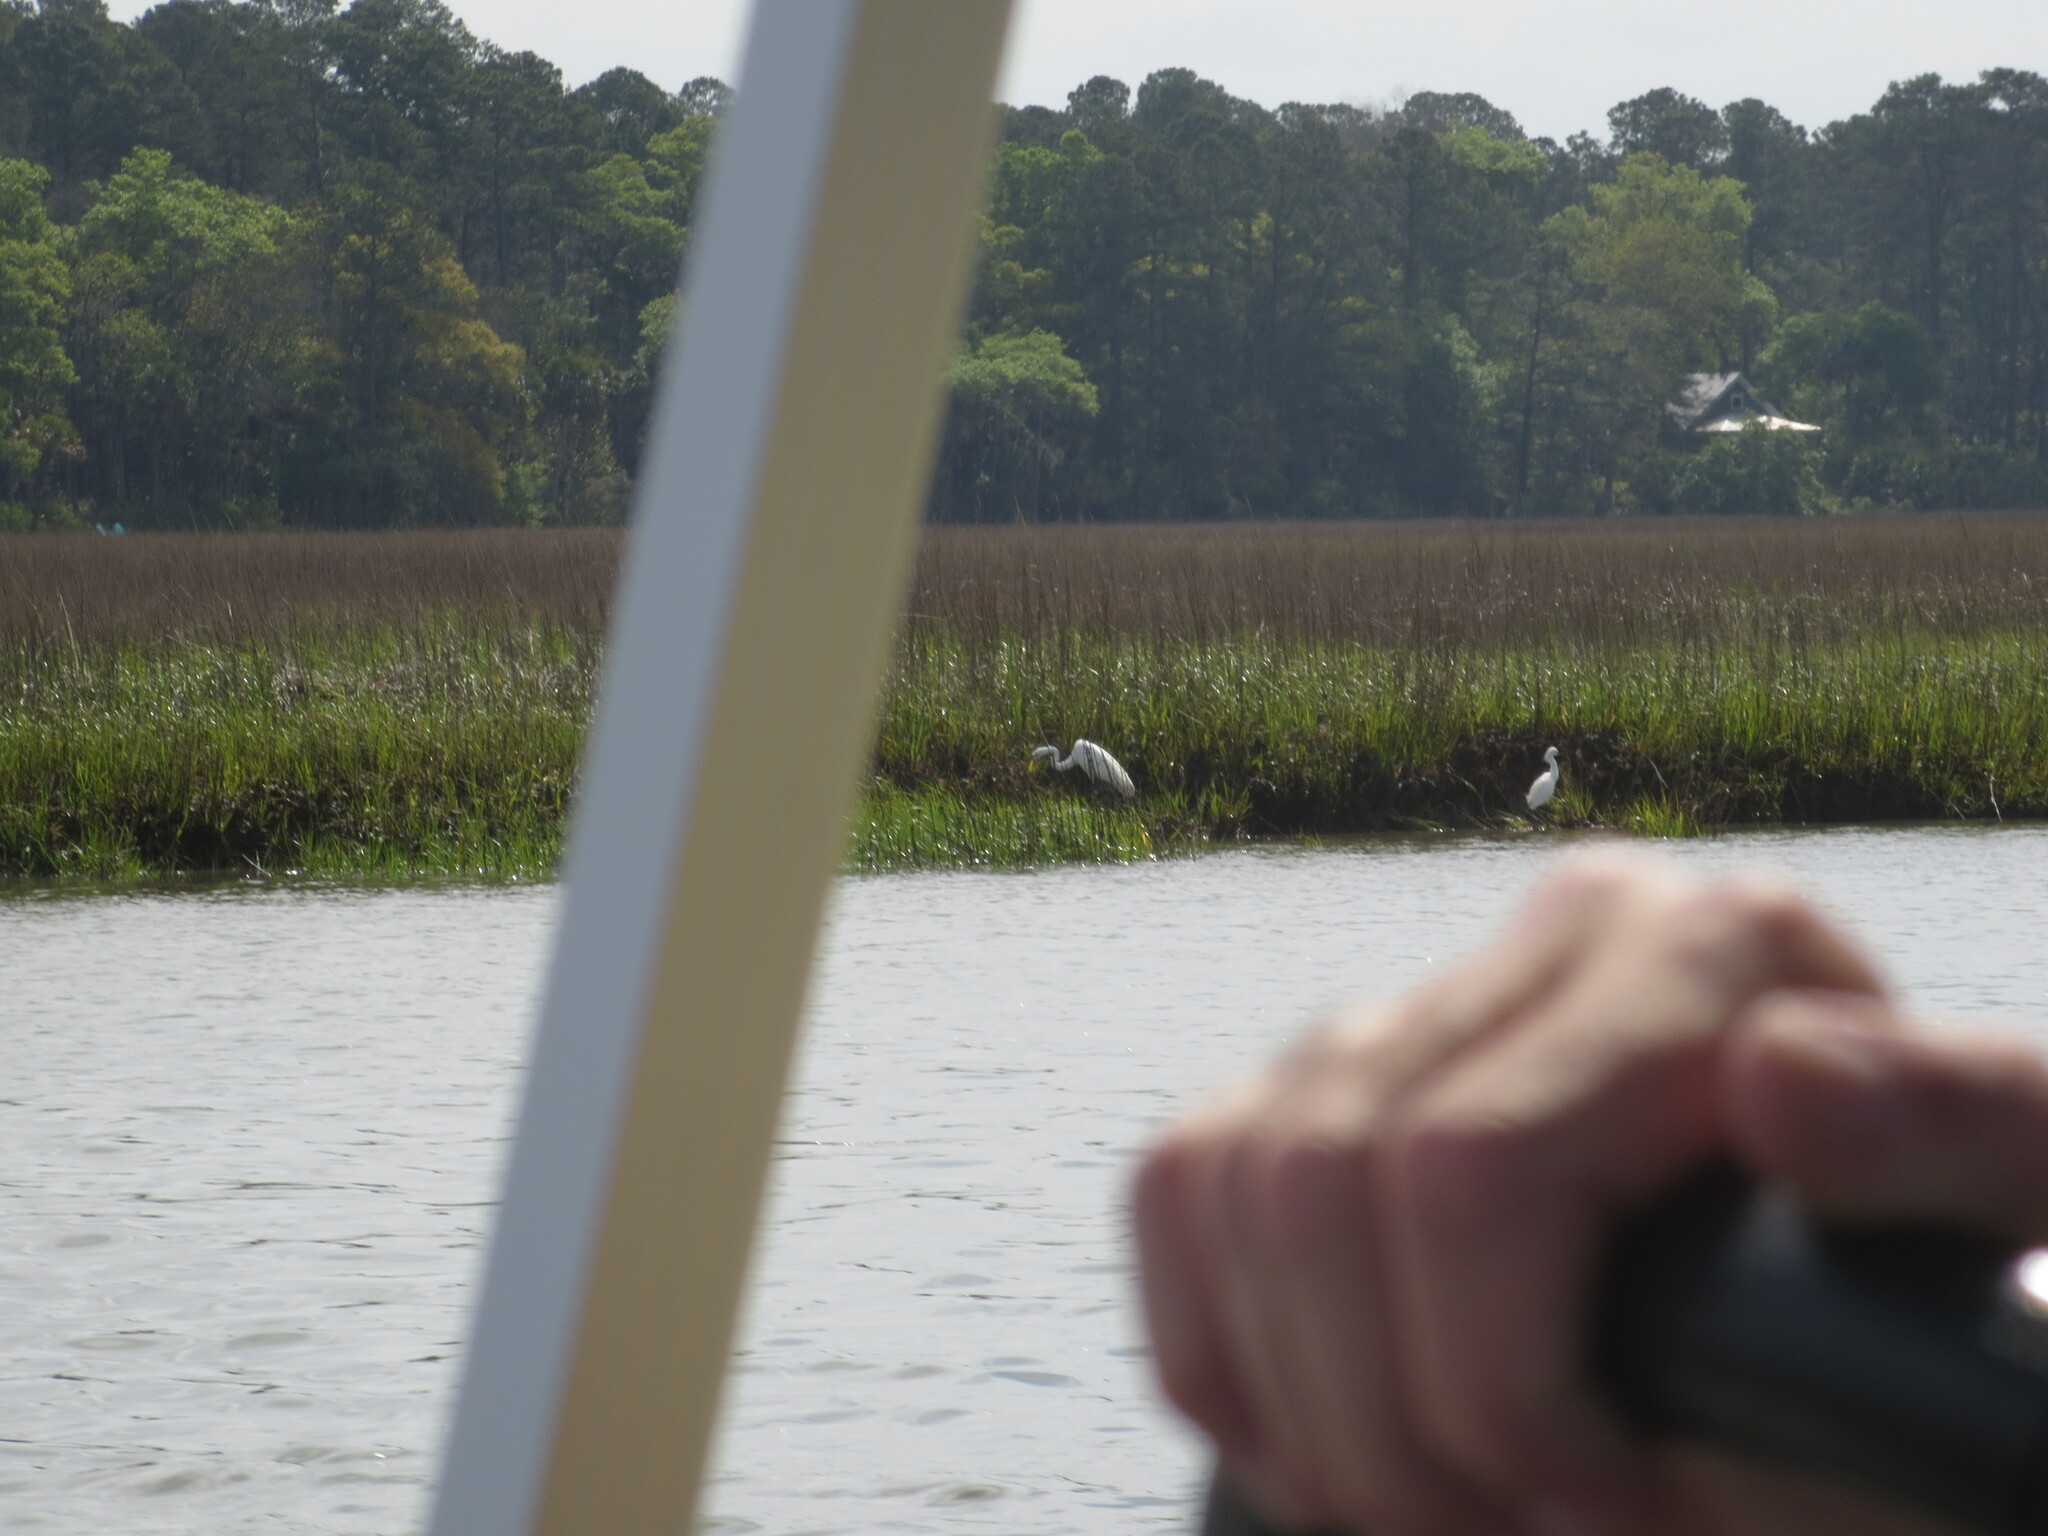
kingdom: Animalia
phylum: Chordata
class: Aves
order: Pelecaniformes
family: Ardeidae
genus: Ardea
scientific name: Ardea alba
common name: Great egret
